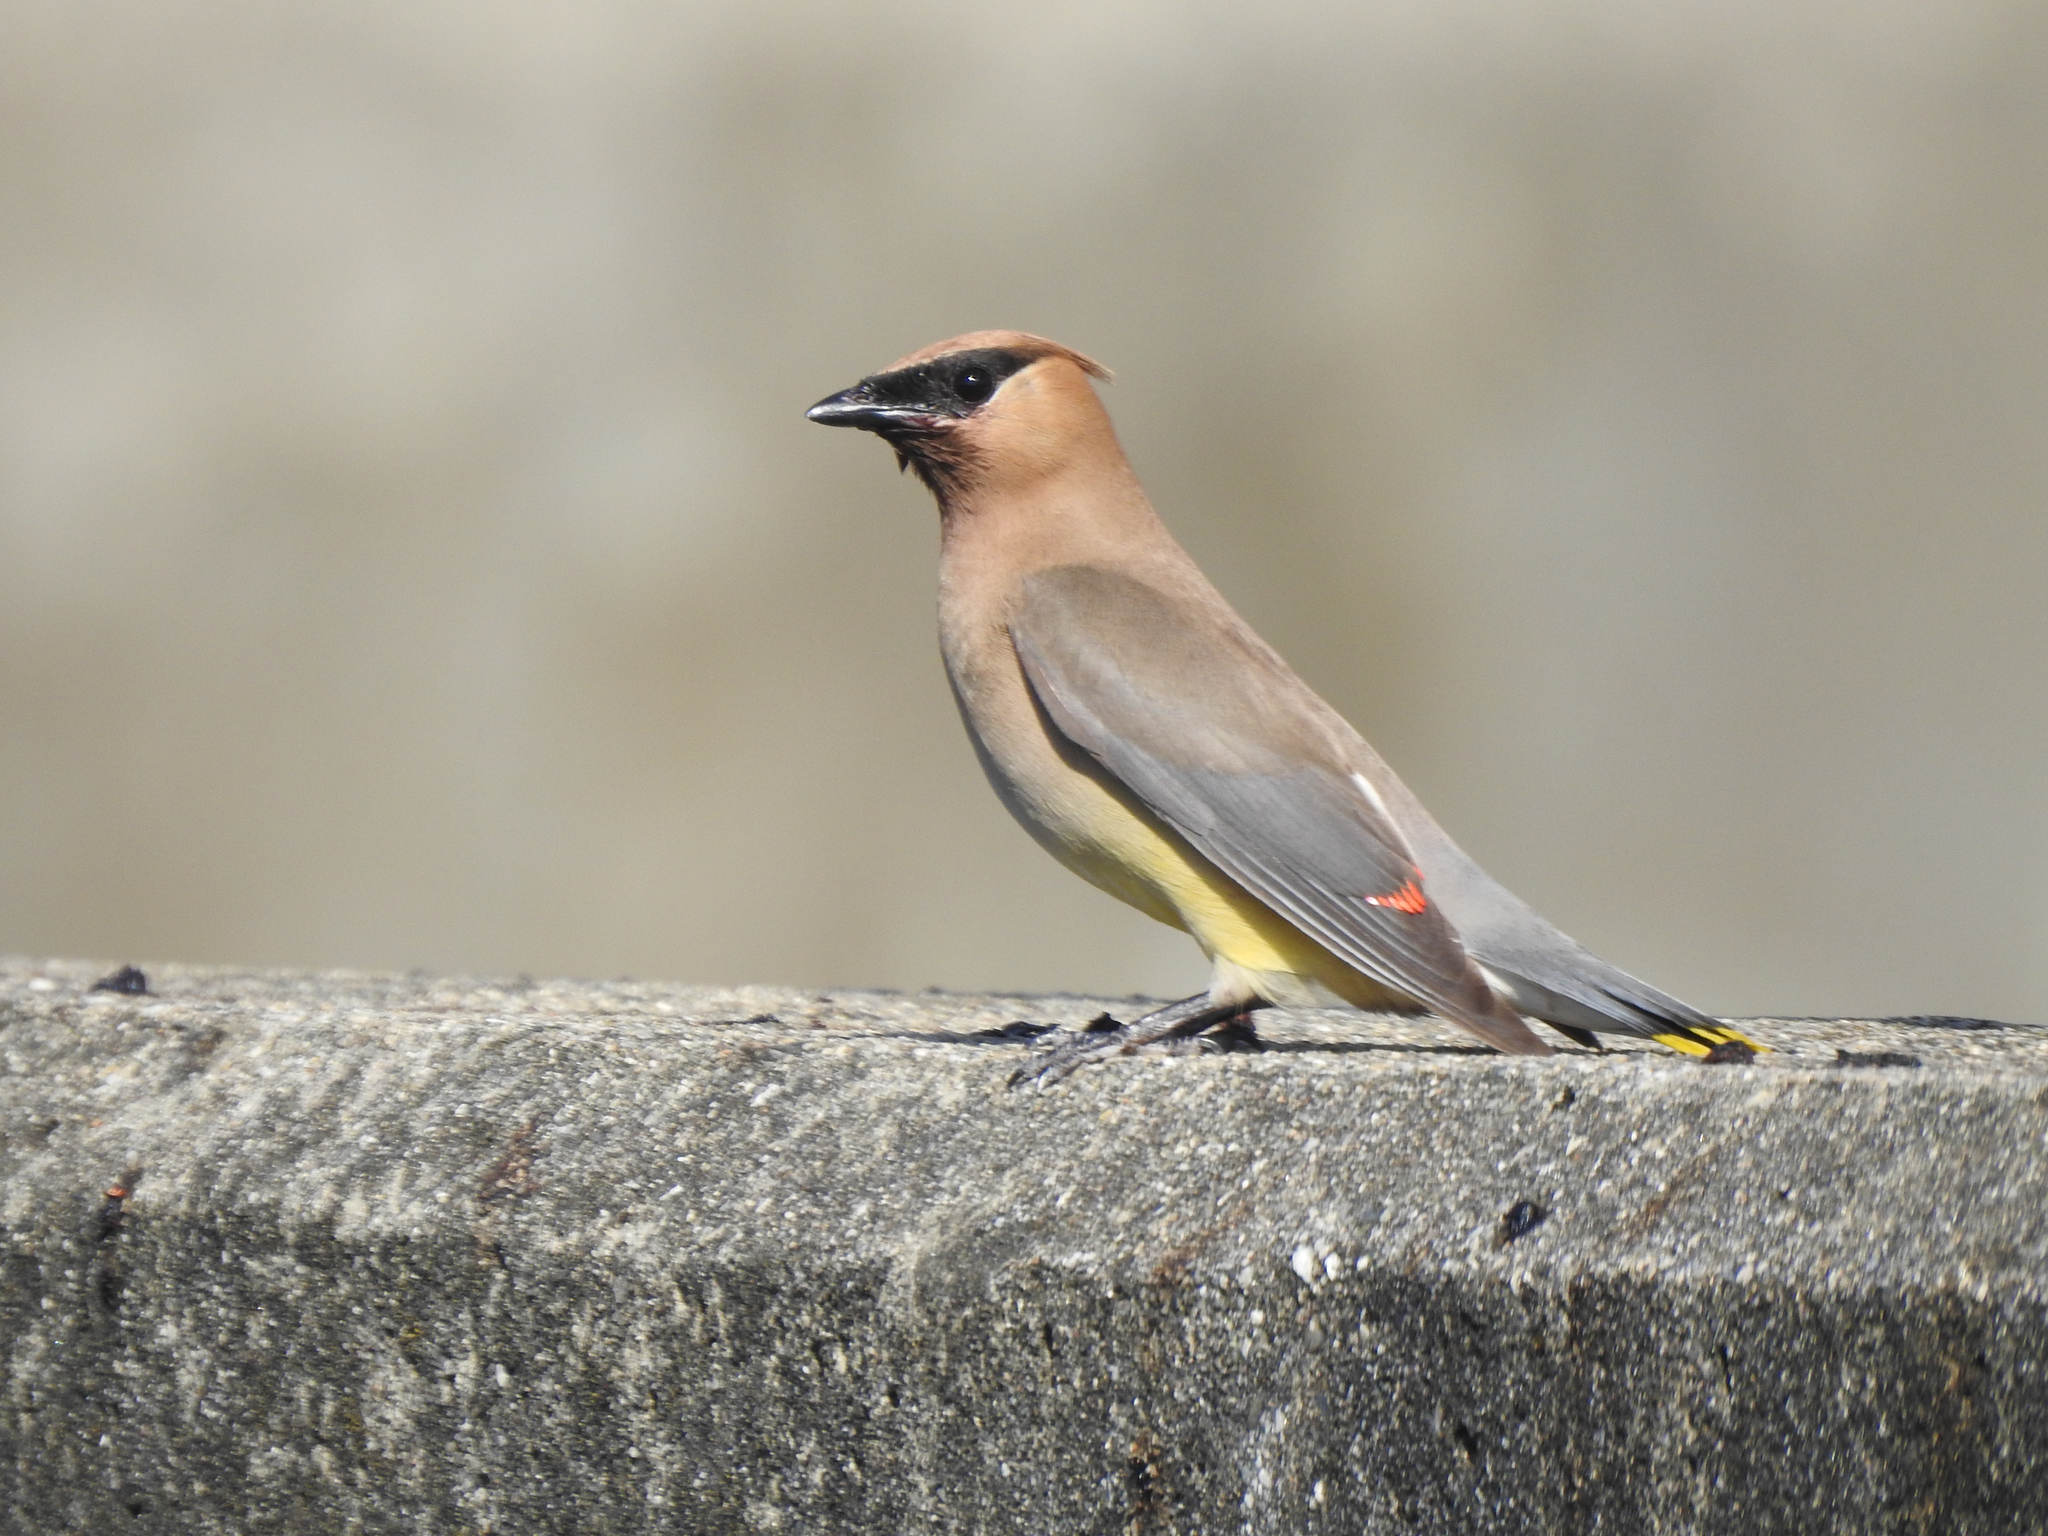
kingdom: Animalia
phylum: Chordata
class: Aves
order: Passeriformes
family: Bombycillidae
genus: Bombycilla
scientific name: Bombycilla cedrorum
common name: Cedar waxwing
